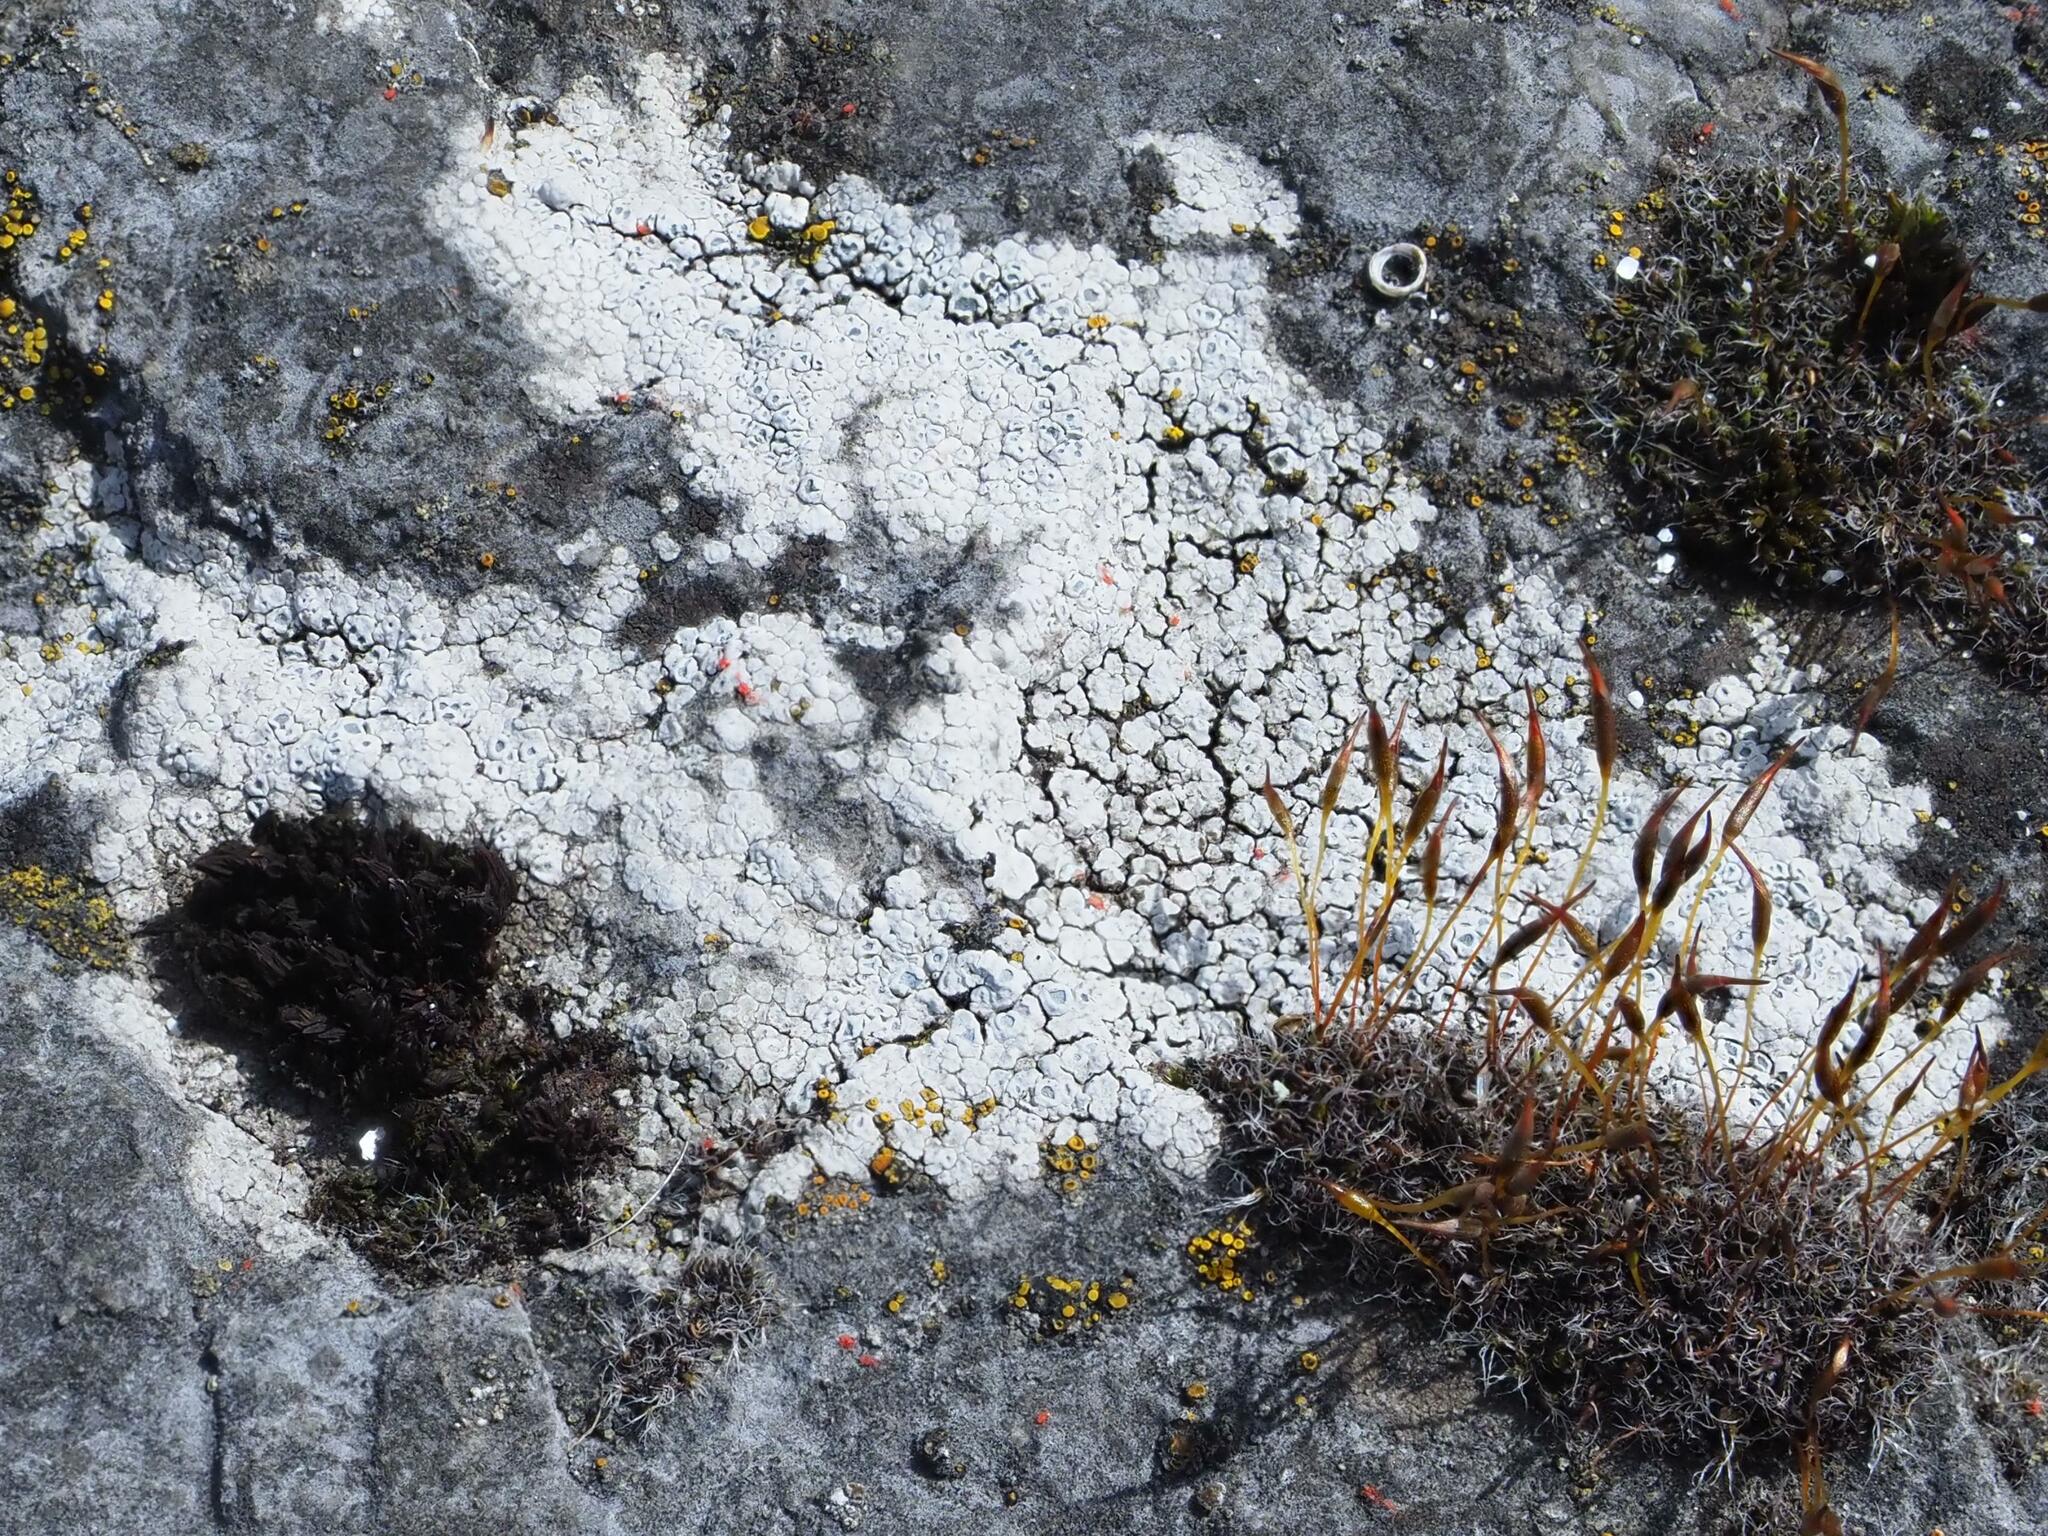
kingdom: Fungi
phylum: Ascomycota
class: Lecanoromycetes
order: Pertusariales
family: Megasporaceae
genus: Circinaria
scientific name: Circinaria contorta
